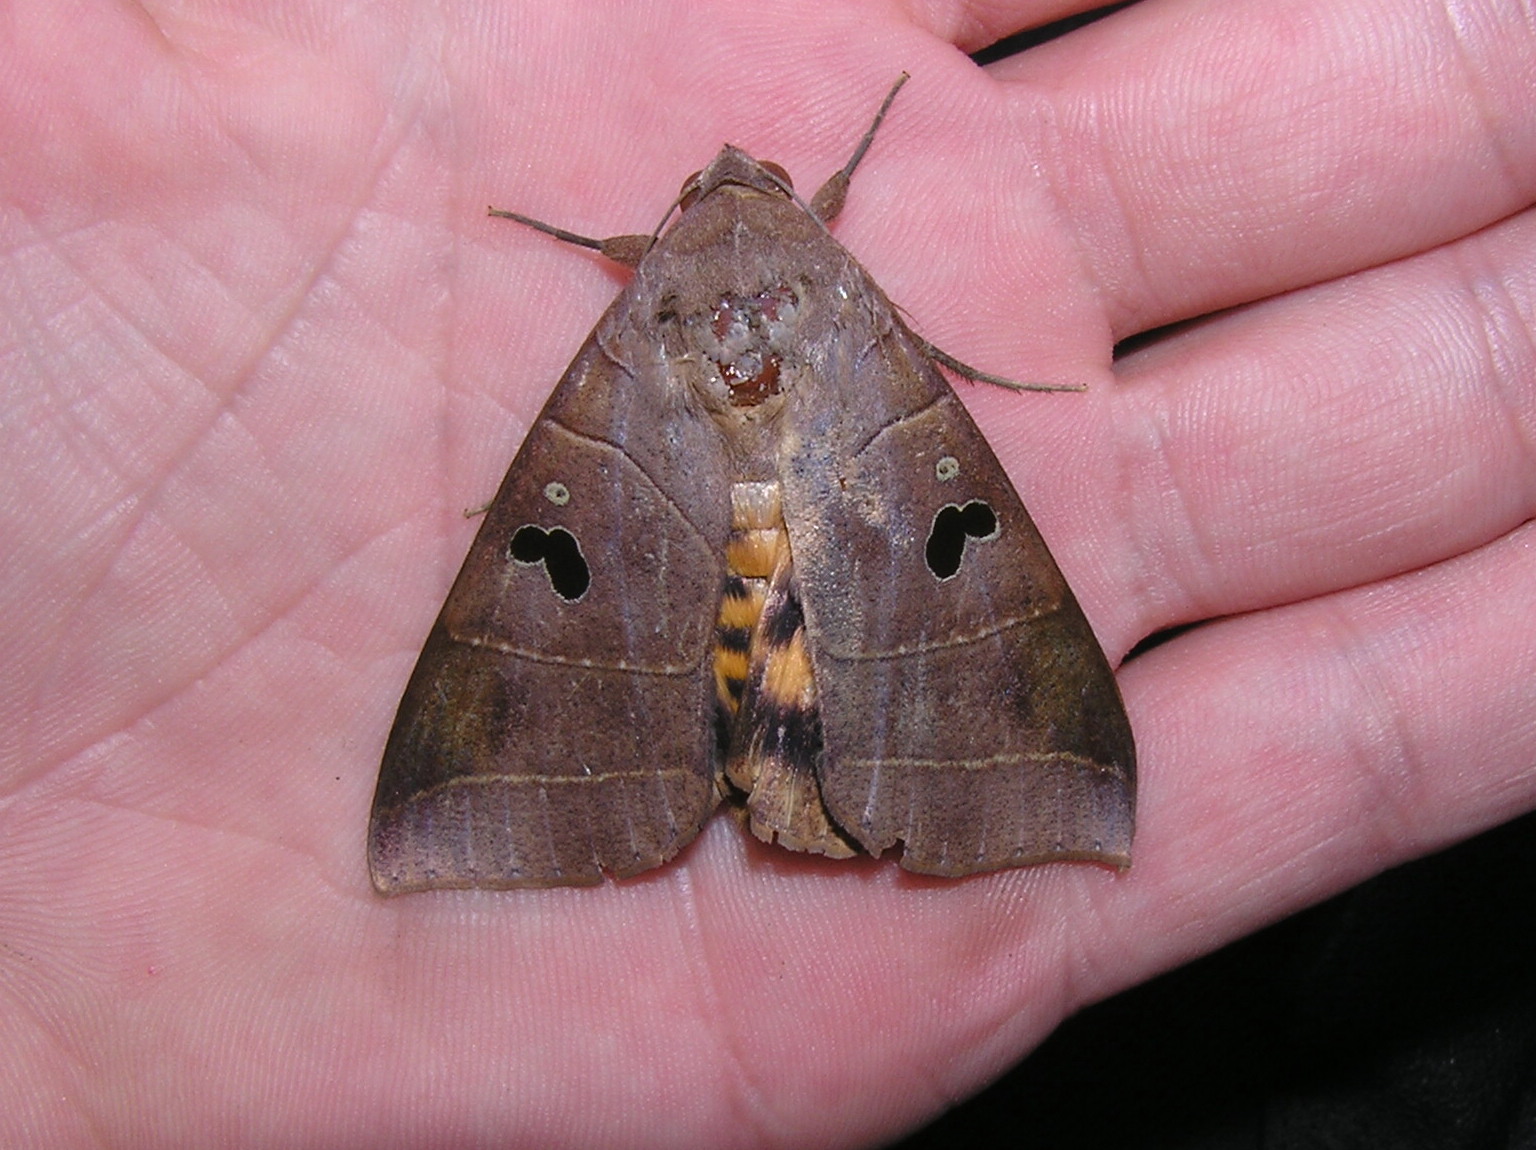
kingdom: Animalia
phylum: Arthropoda
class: Insecta
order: Lepidoptera
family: Erebidae
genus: Thyas
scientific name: Thyas coronata
